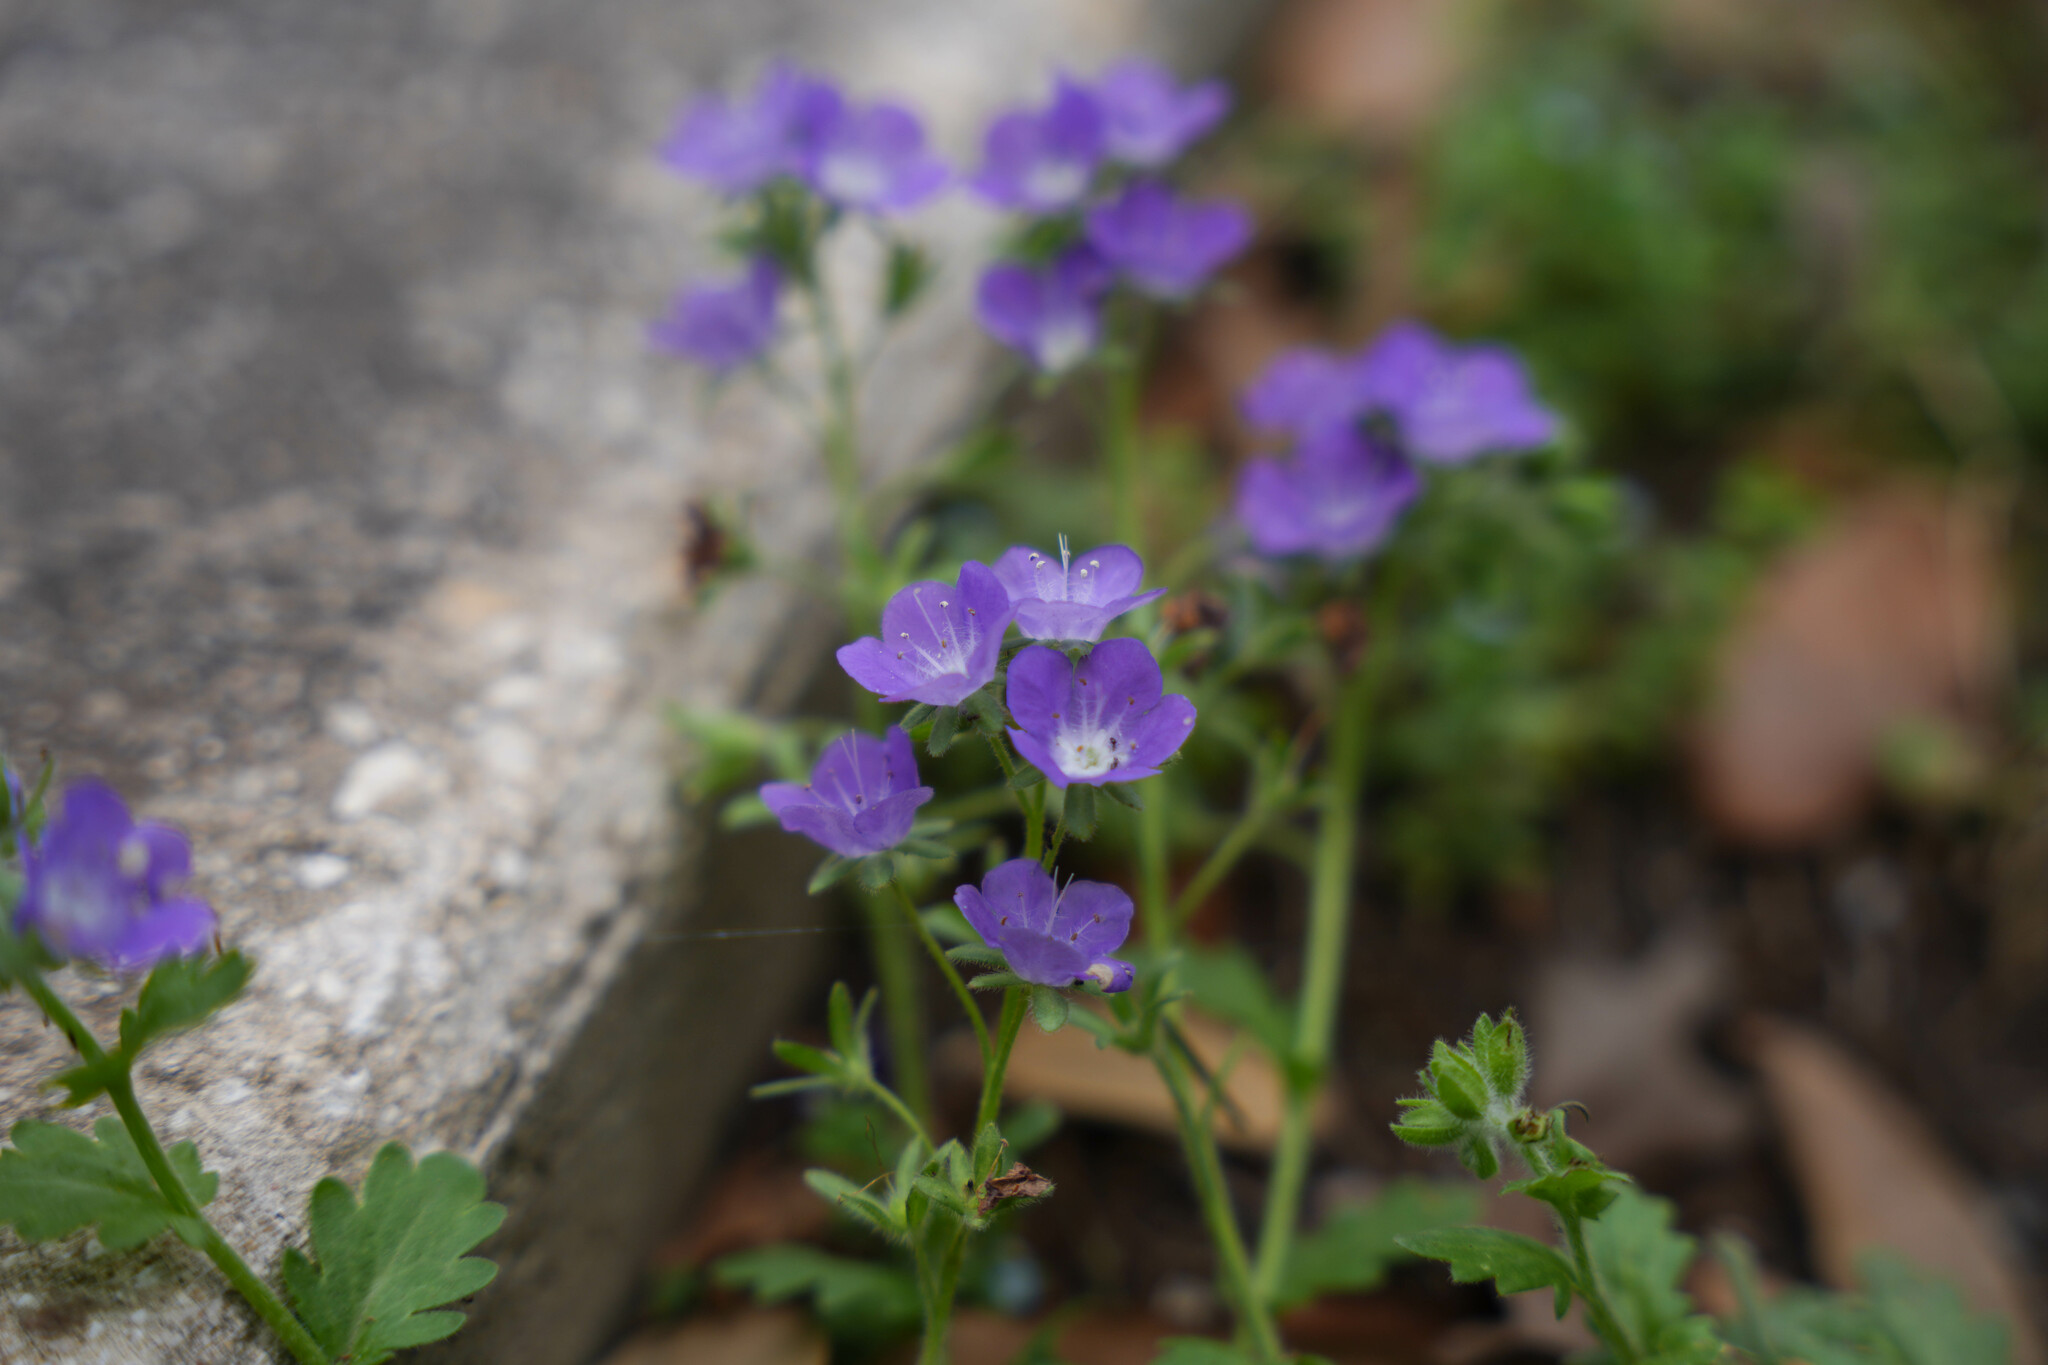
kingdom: Plantae
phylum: Tracheophyta
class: Magnoliopsida
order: Boraginales
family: Hydrophyllaceae
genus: Phacelia
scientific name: Phacelia patuliflora
